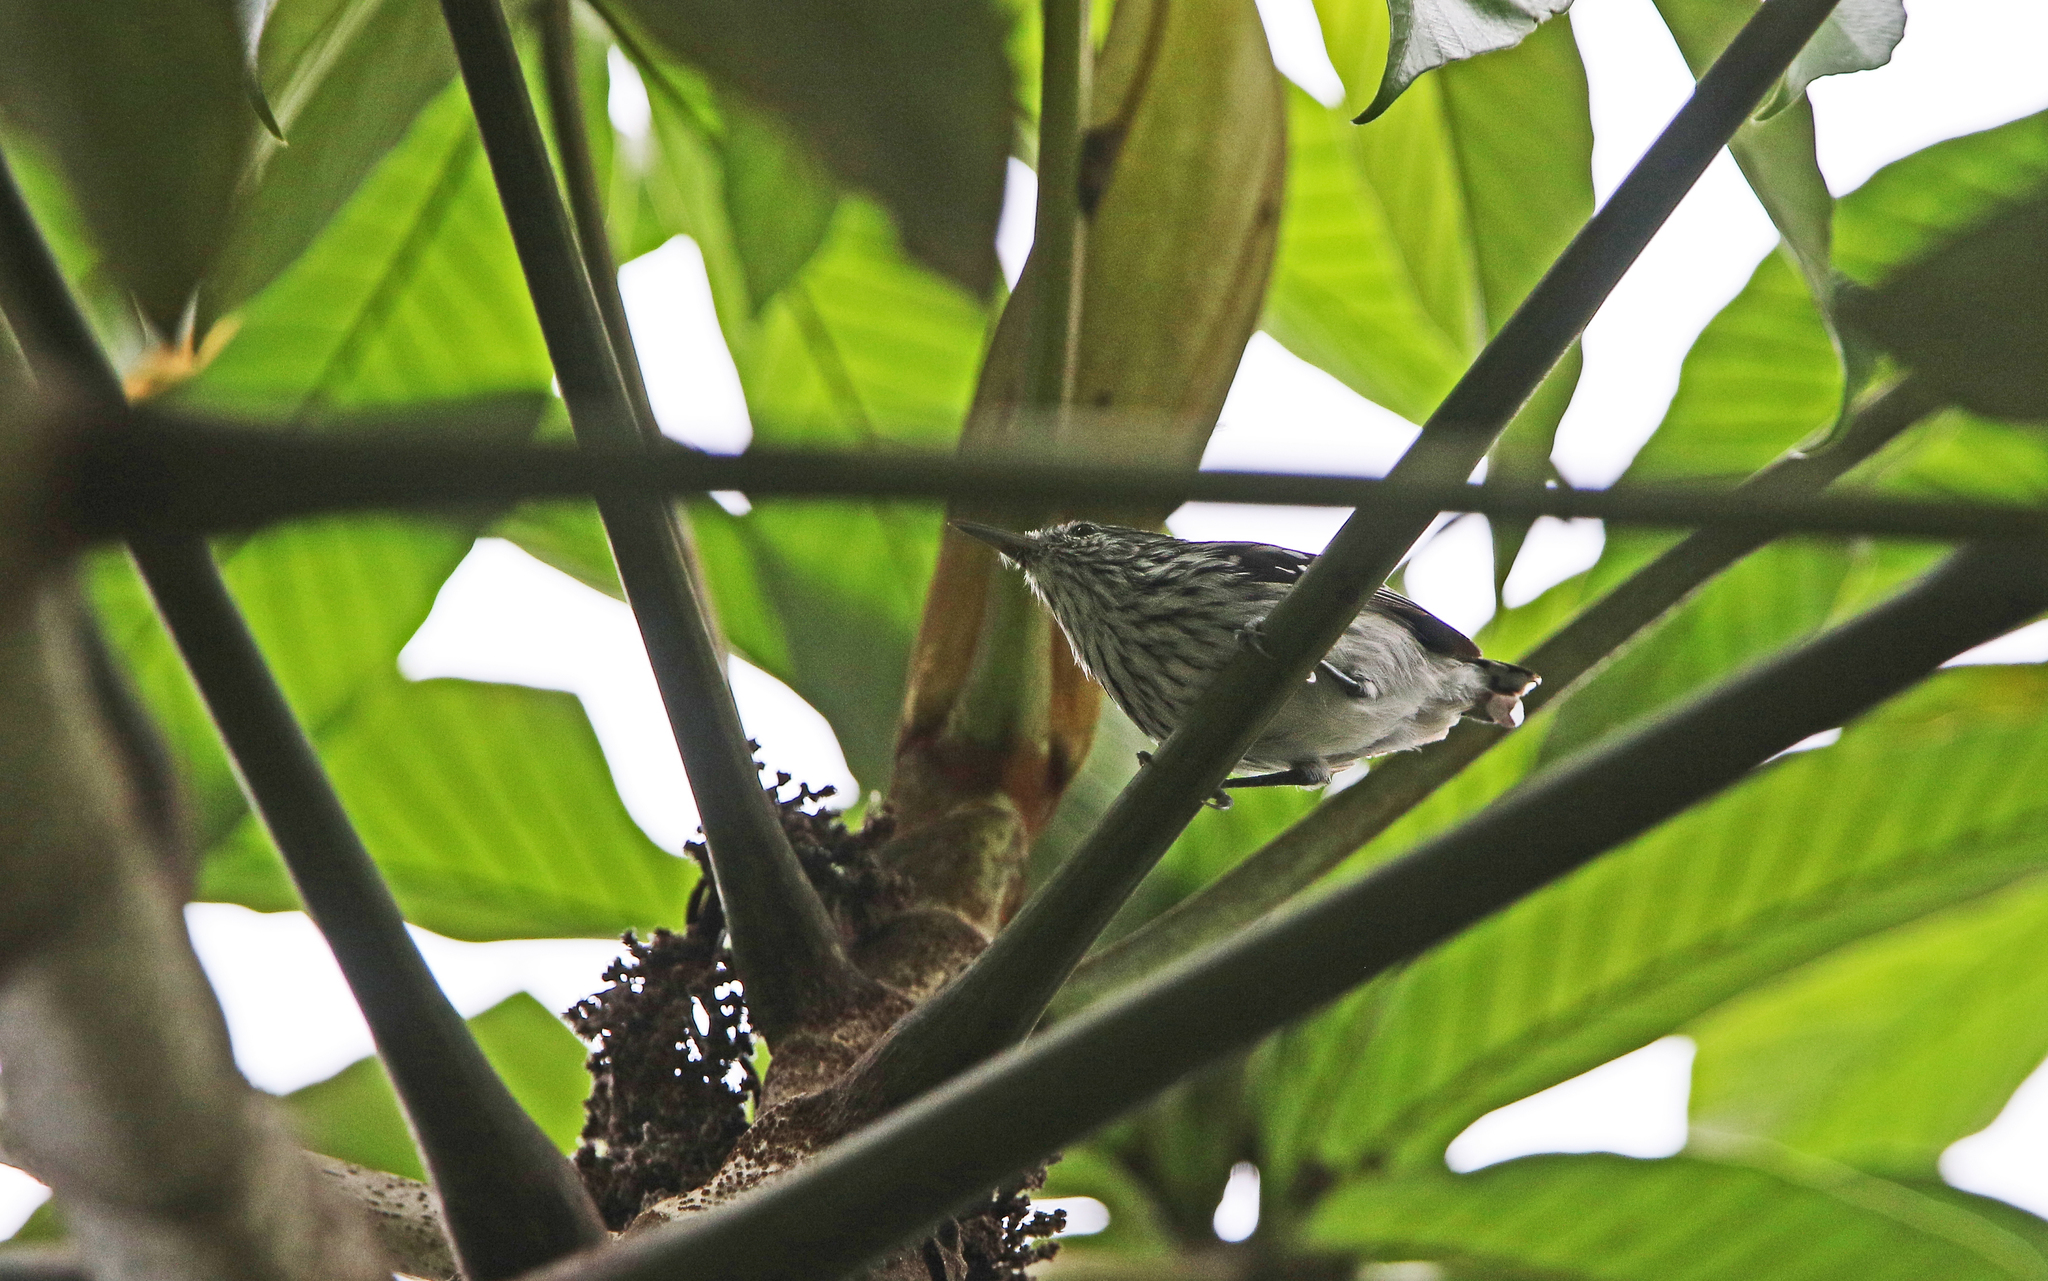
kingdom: Animalia
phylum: Chordata
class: Aves
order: Passeriformes
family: Thamnophilidae
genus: Myrmotherula
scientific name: Myrmotherula pacifica
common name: Pacific antwren
